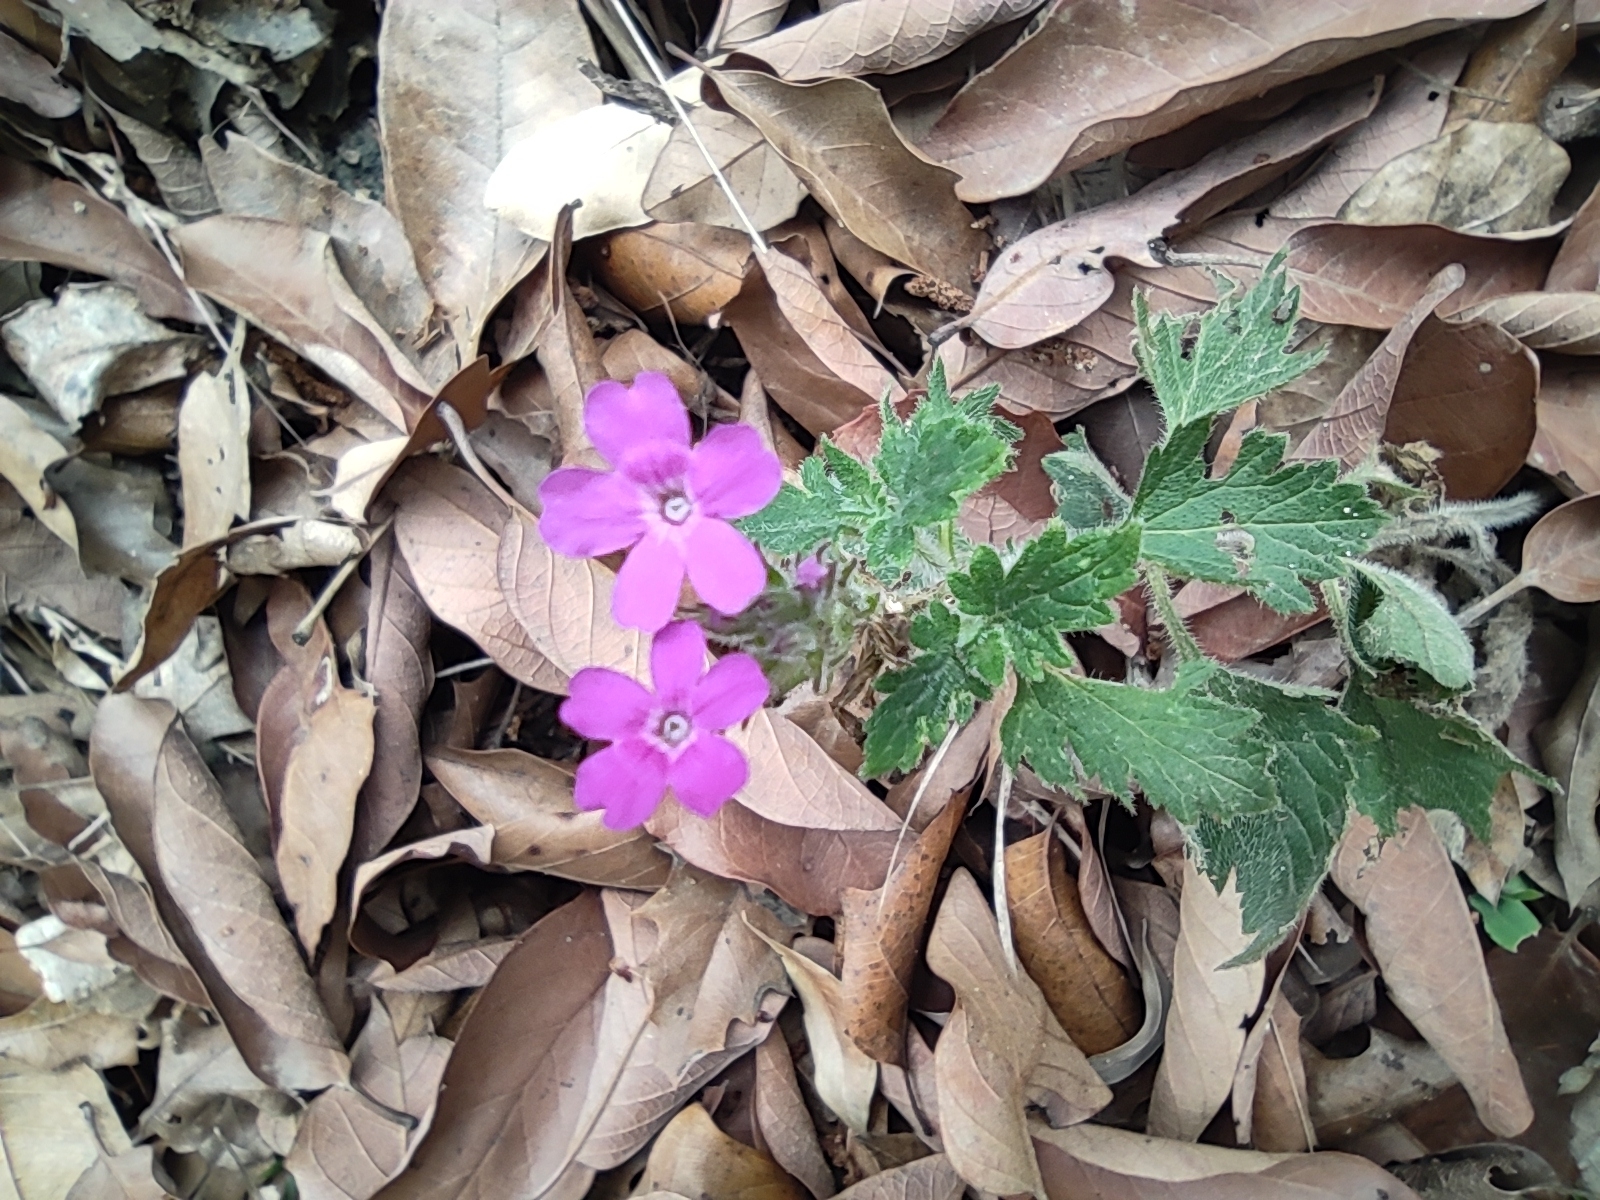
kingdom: Plantae
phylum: Tracheophyta
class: Magnoliopsida
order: Lamiales
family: Verbenaceae
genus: Verbena
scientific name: Verbena canadensis
